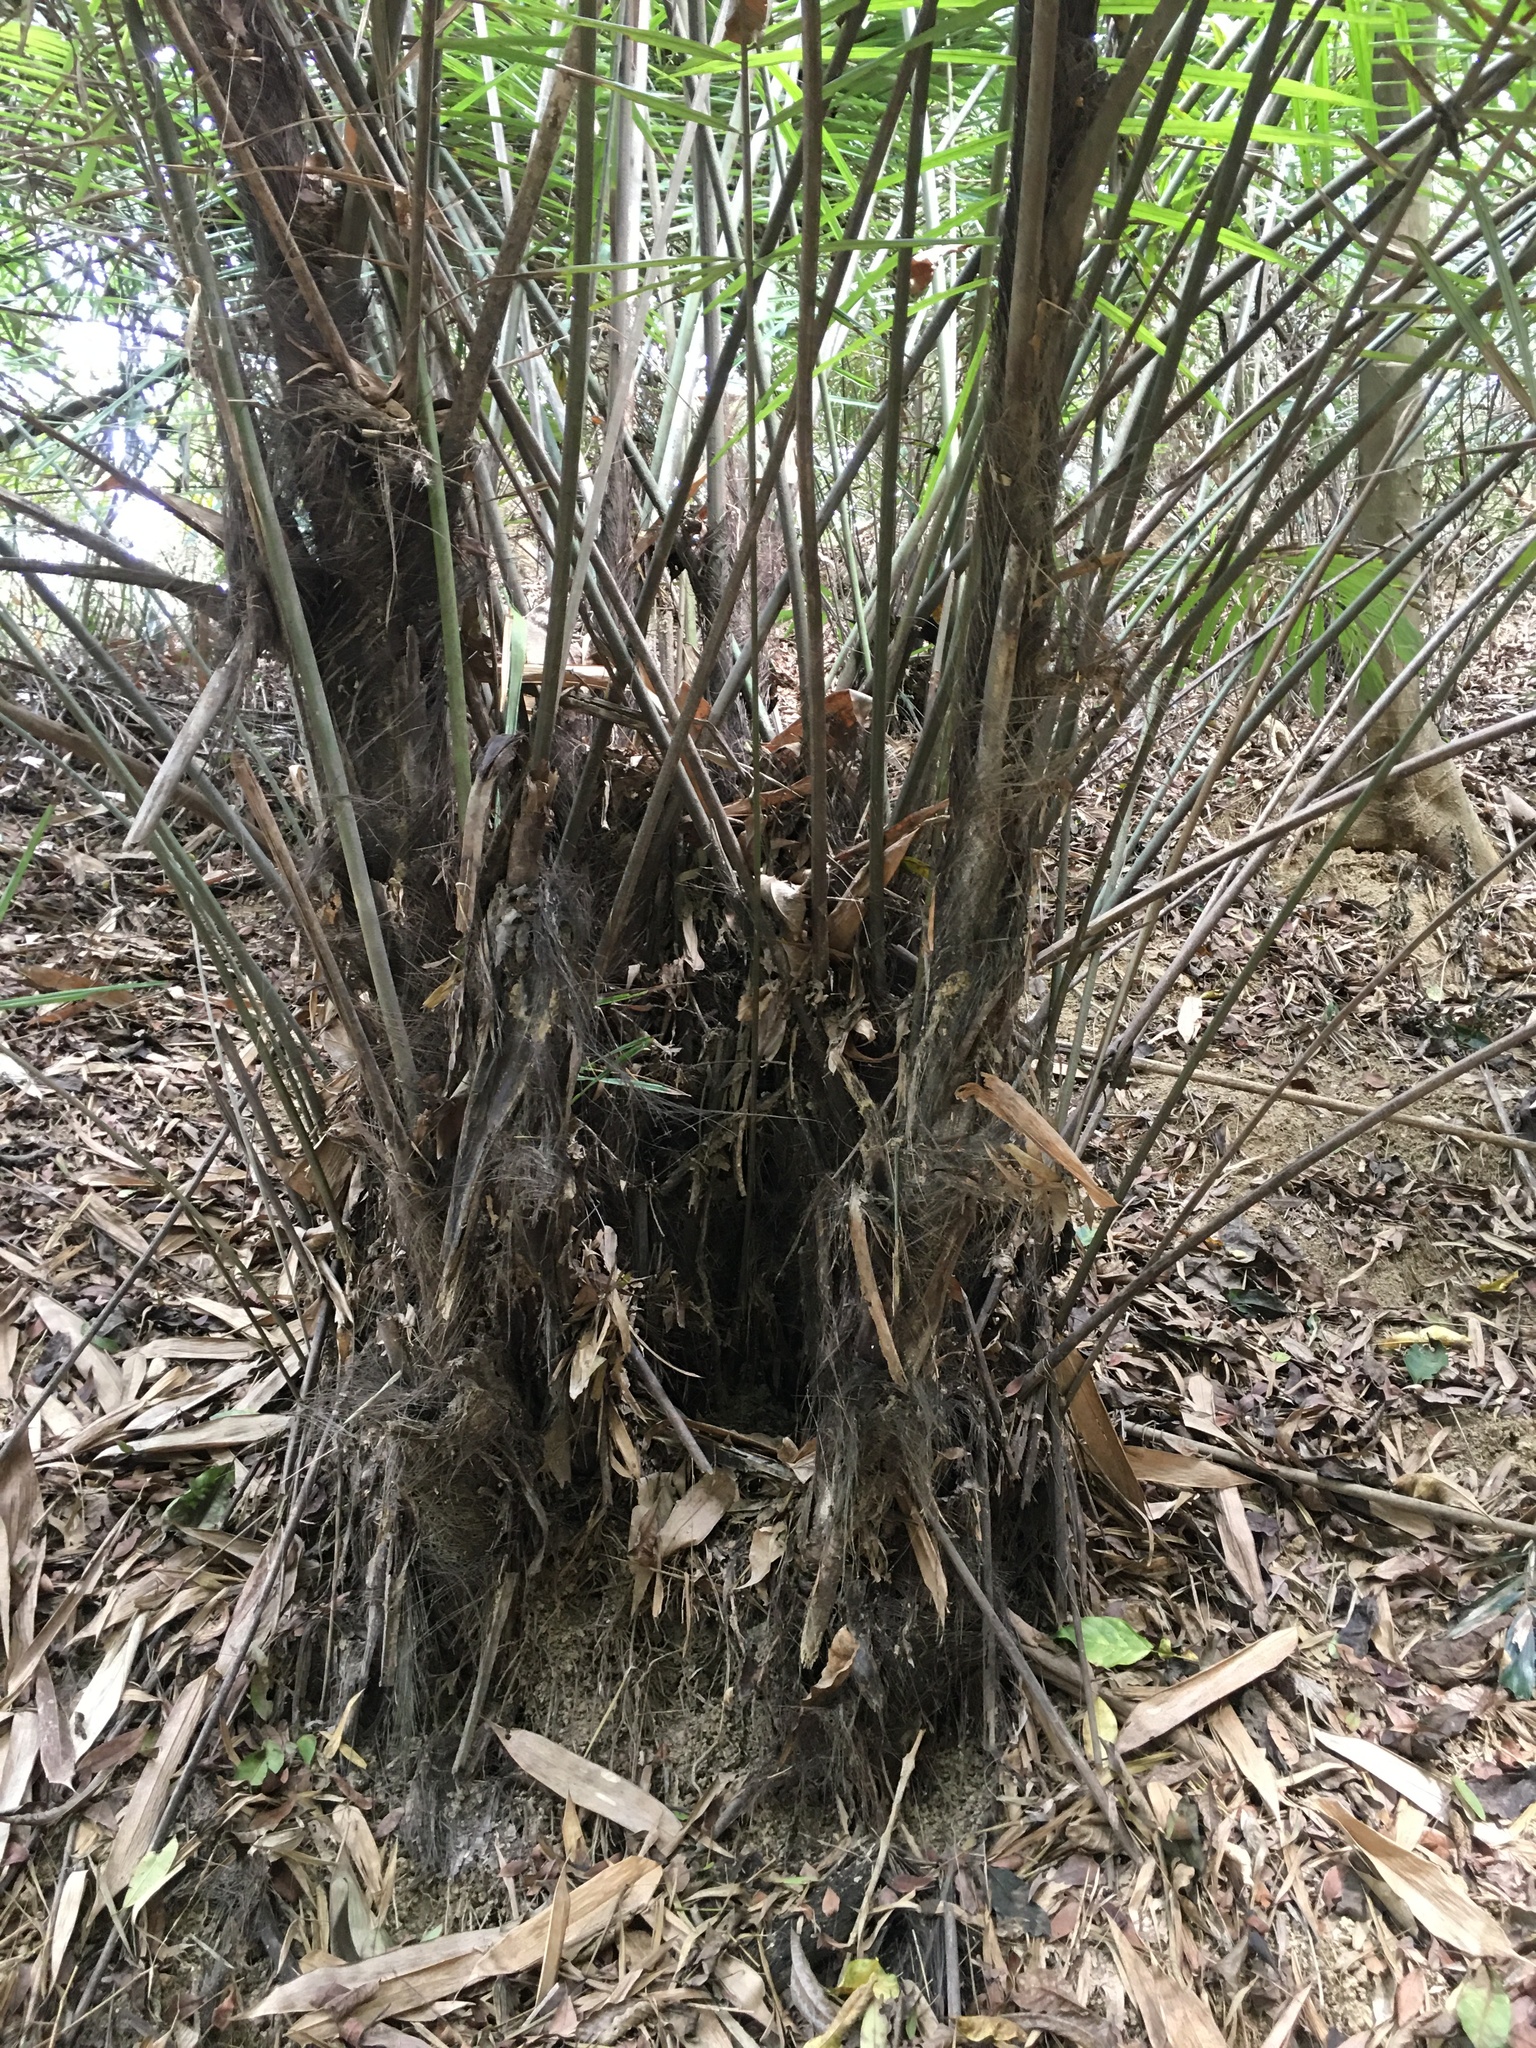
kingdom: Plantae
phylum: Tracheophyta
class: Liliopsida
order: Arecales
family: Arecaceae
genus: Arenga
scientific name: Arenga engleri
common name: Formosan sugar palm
